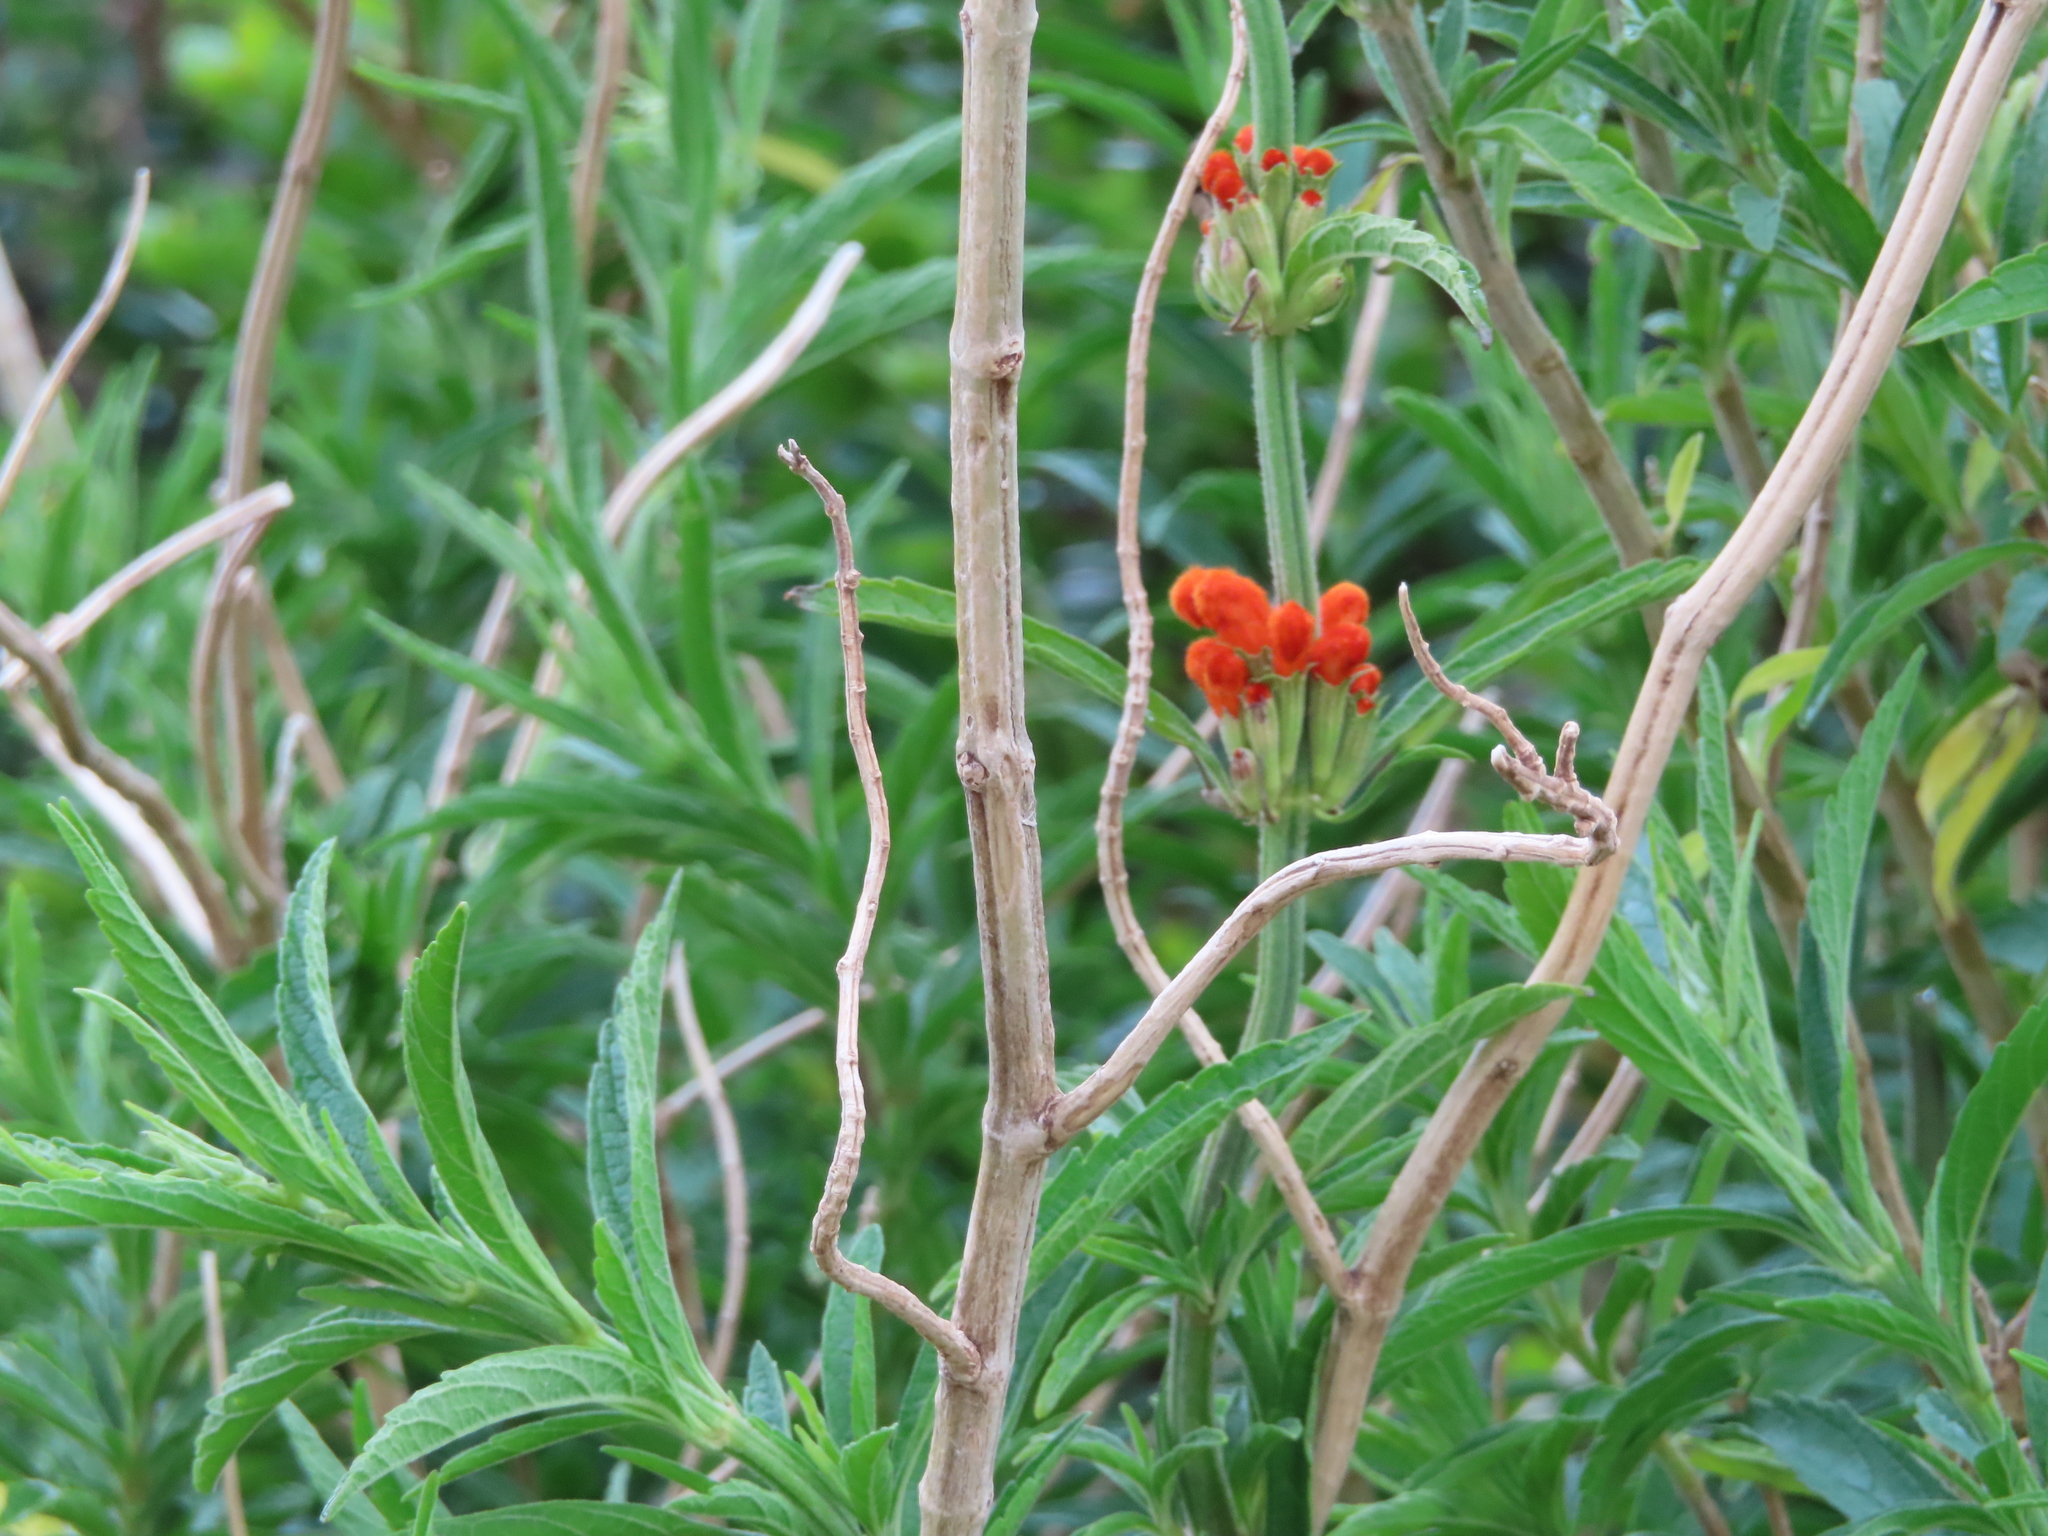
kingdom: Plantae
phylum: Tracheophyta
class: Magnoliopsida
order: Lamiales
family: Lamiaceae
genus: Leonotis
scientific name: Leonotis leonurus
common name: Lion's ear
